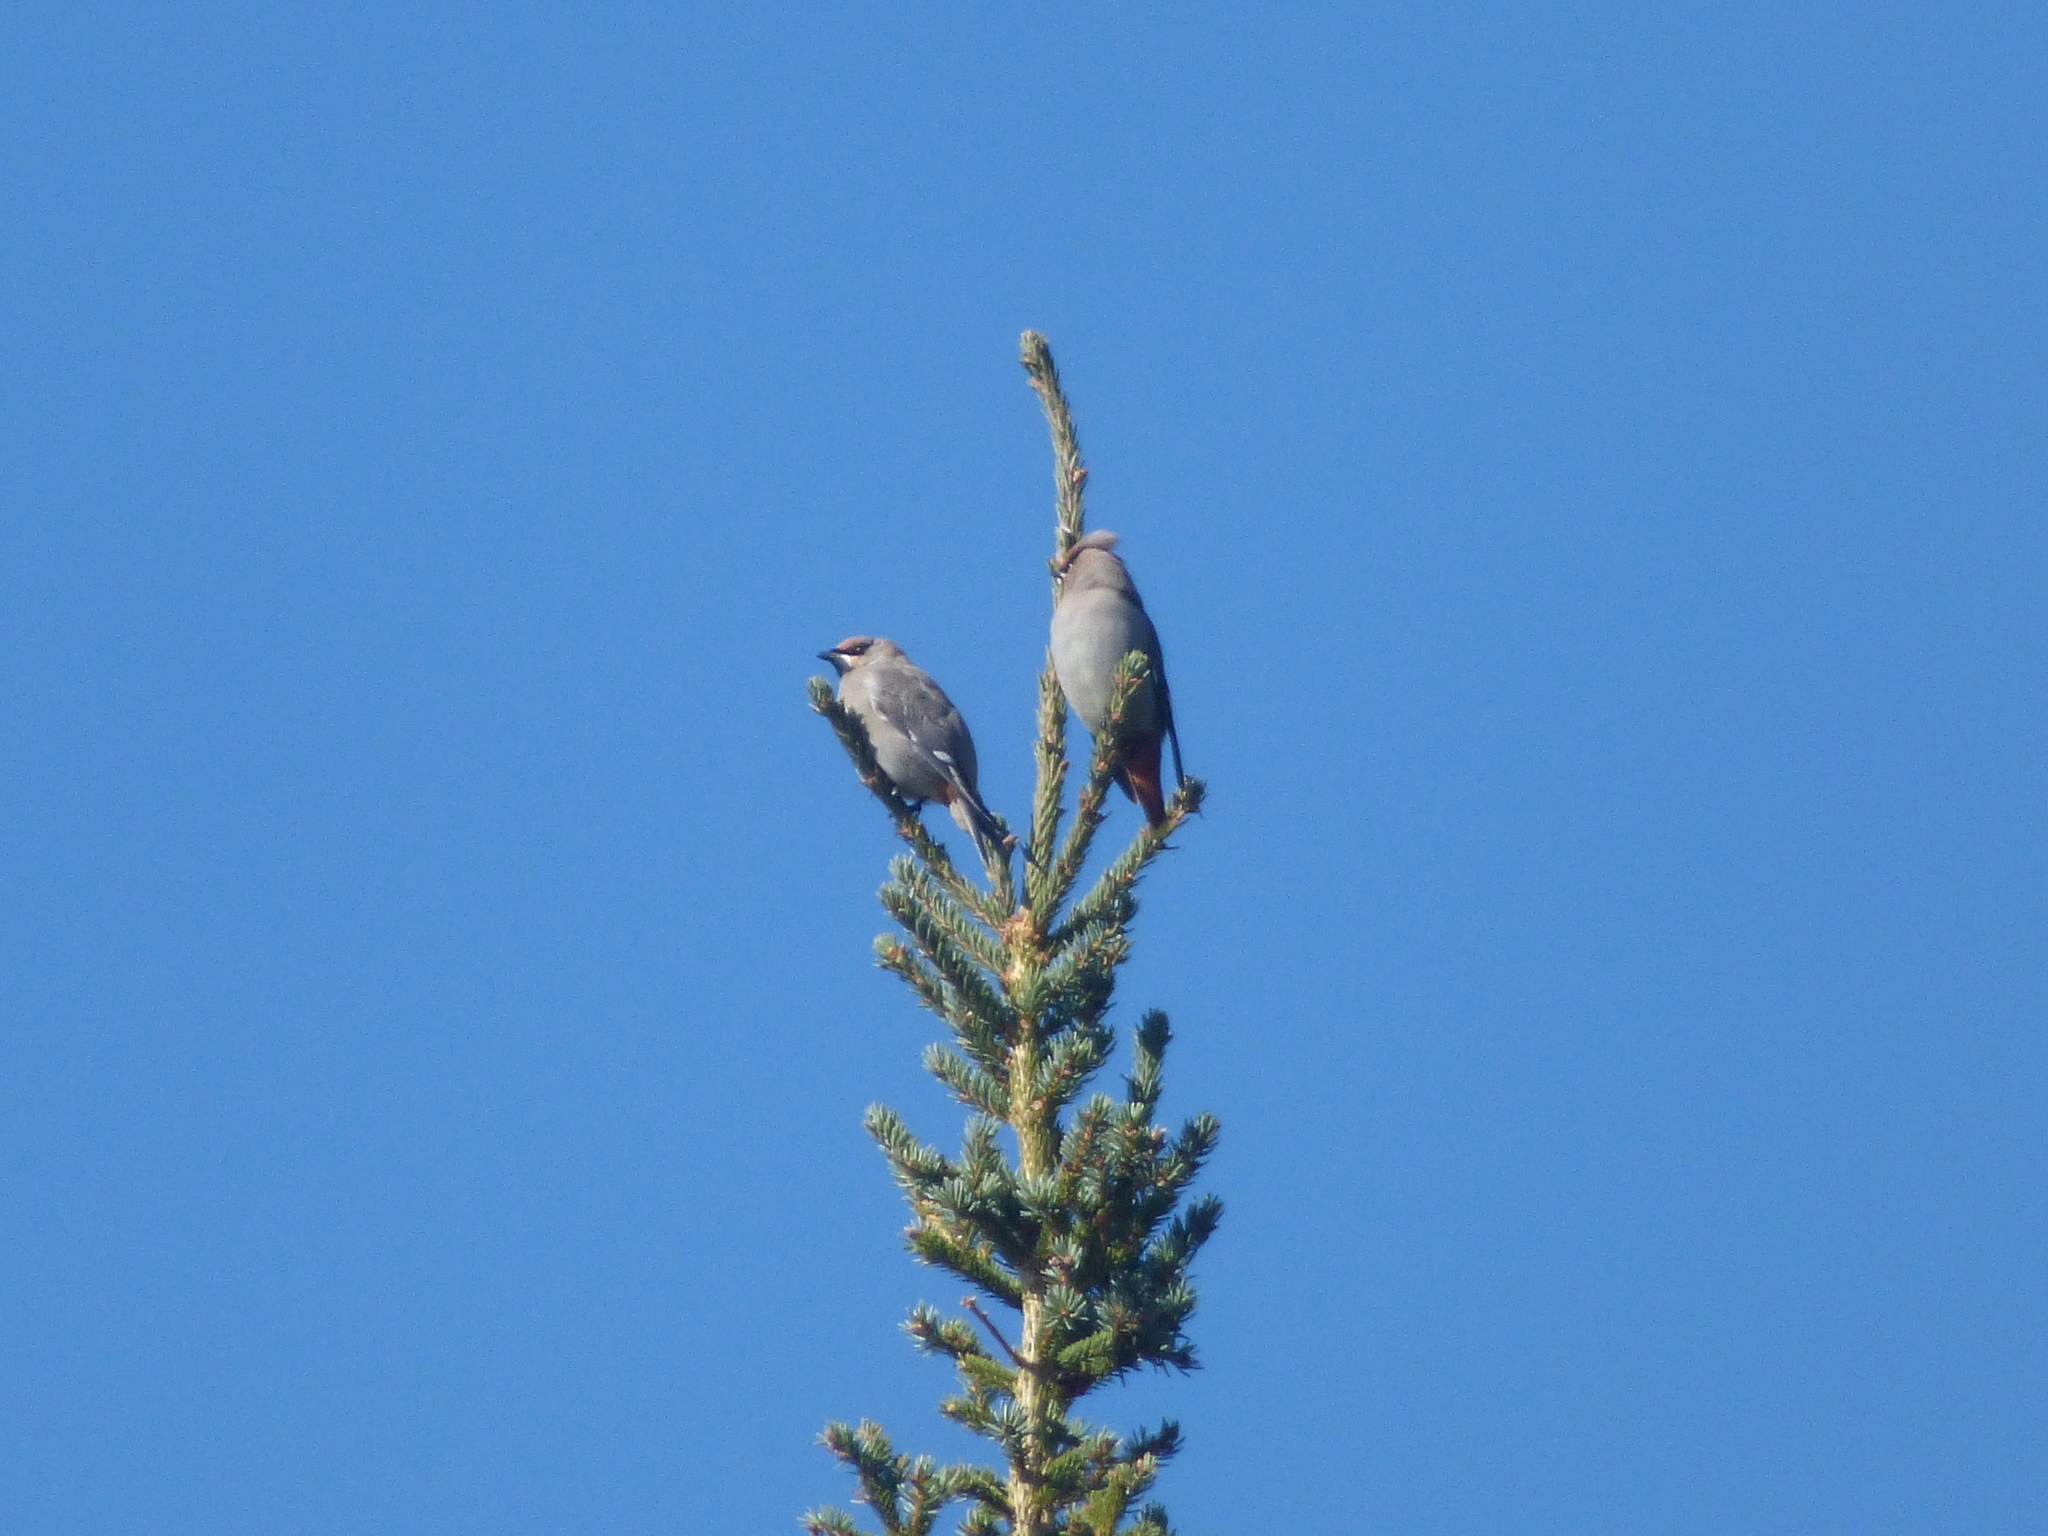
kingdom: Animalia
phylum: Chordata
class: Aves
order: Passeriformes
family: Bombycillidae
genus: Bombycilla
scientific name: Bombycilla garrulus
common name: Bohemian waxwing
